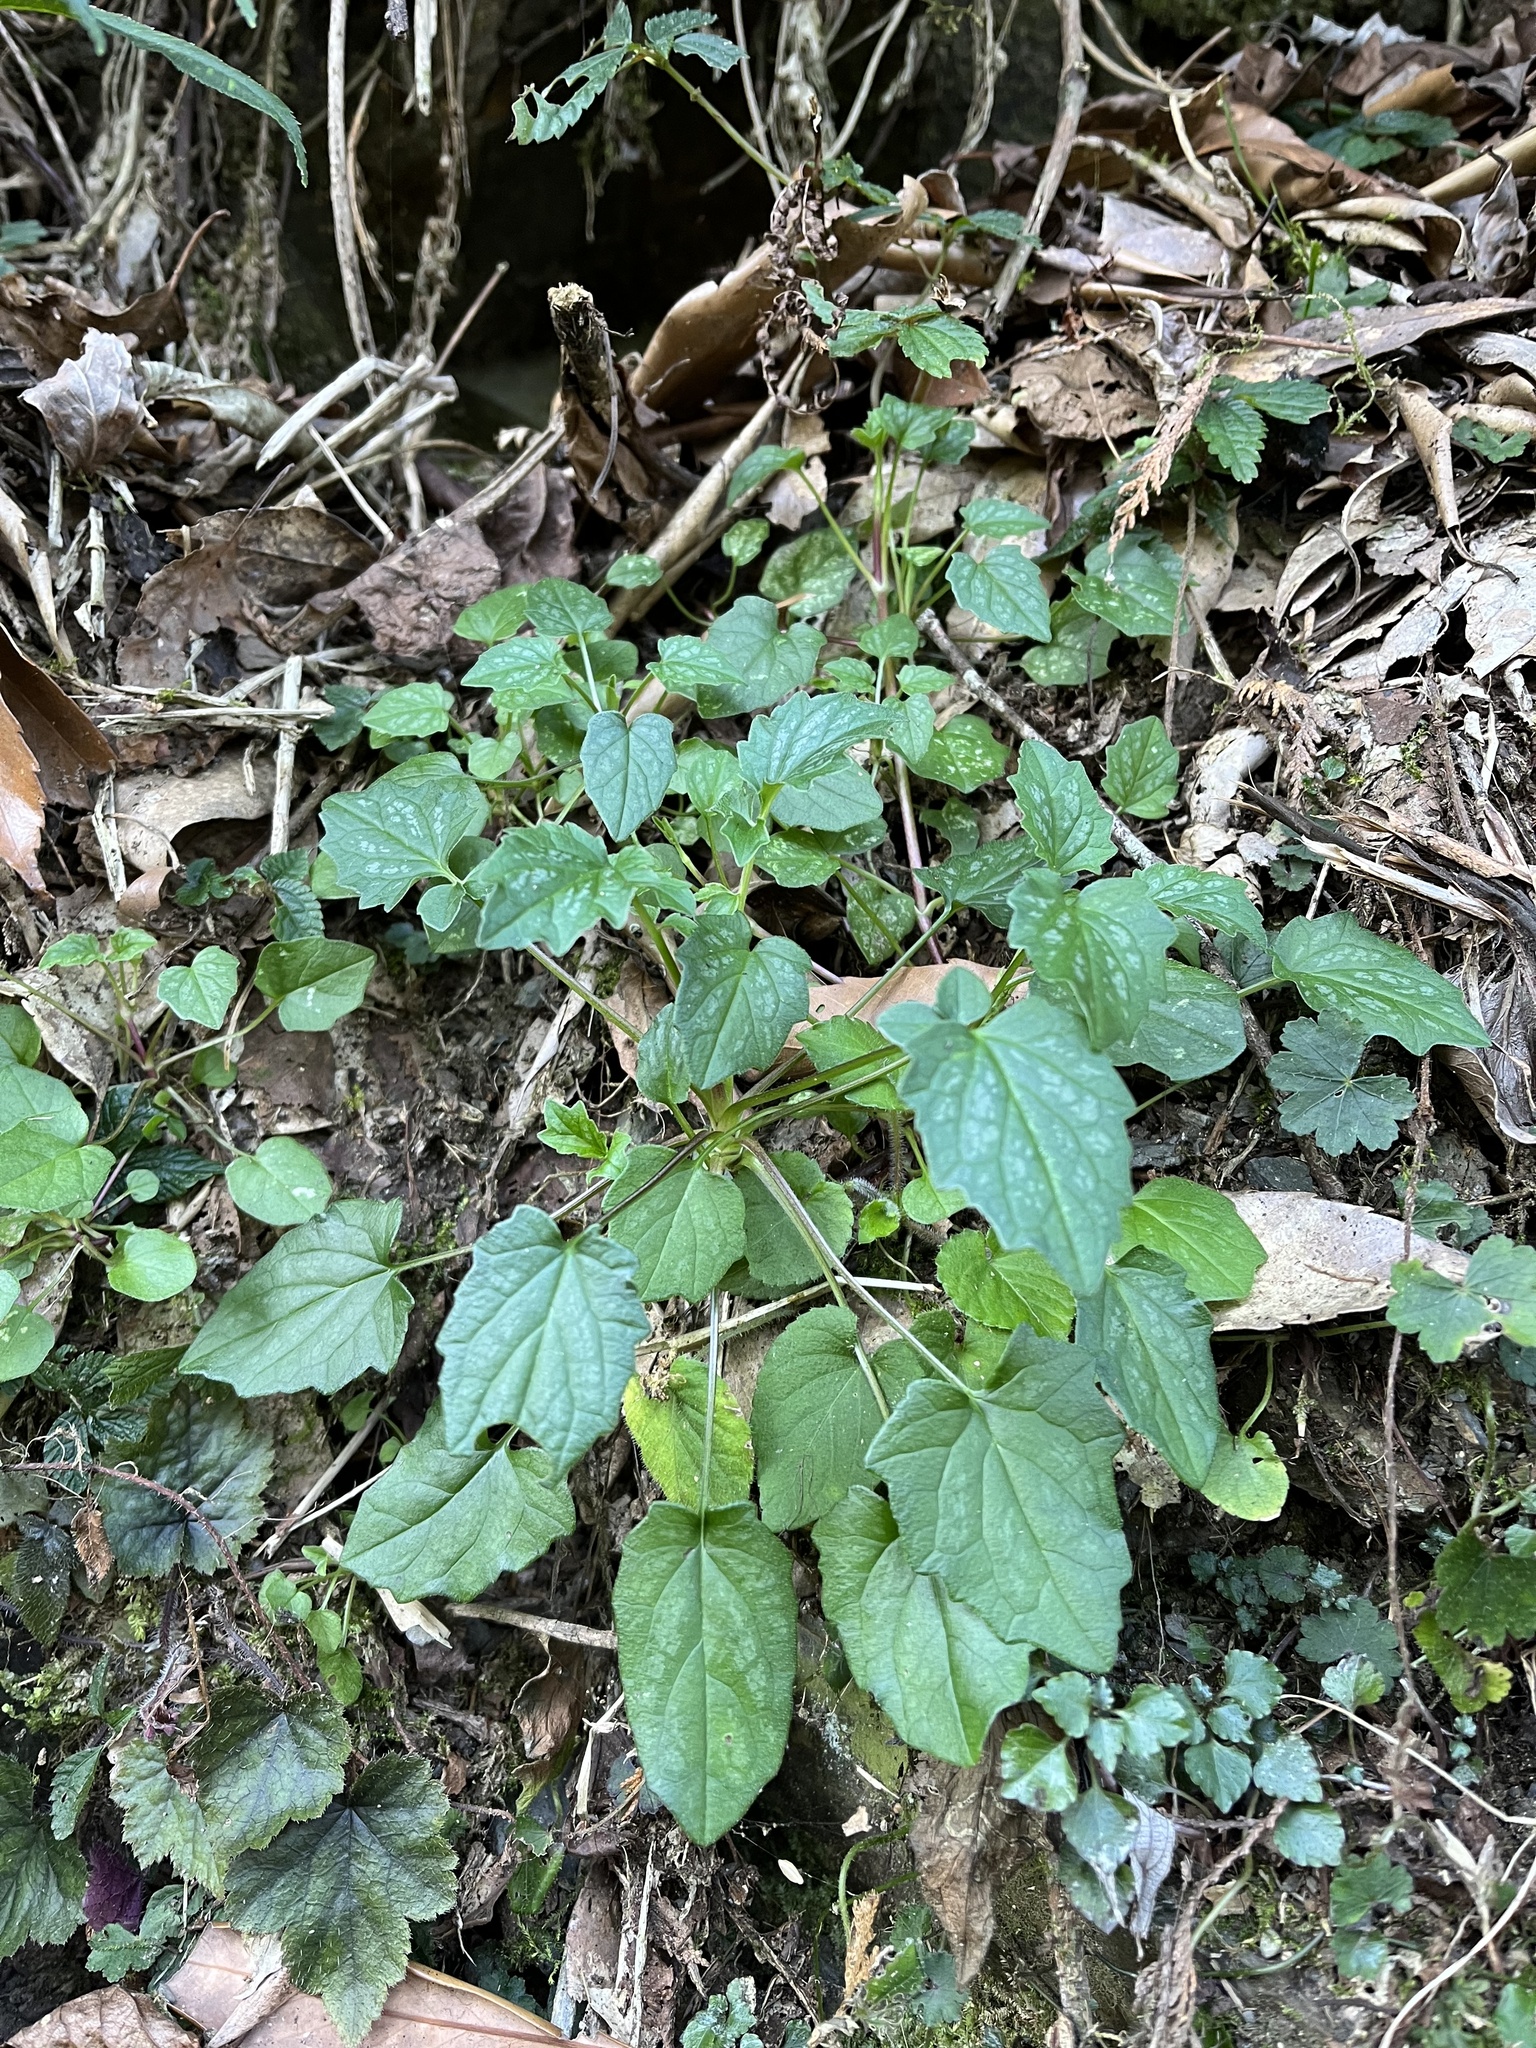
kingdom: Plantae
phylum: Tracheophyta
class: Magnoliopsida
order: Dipsacales
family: Caprifoliaceae
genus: Valeriana
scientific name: Valeriana hsui
